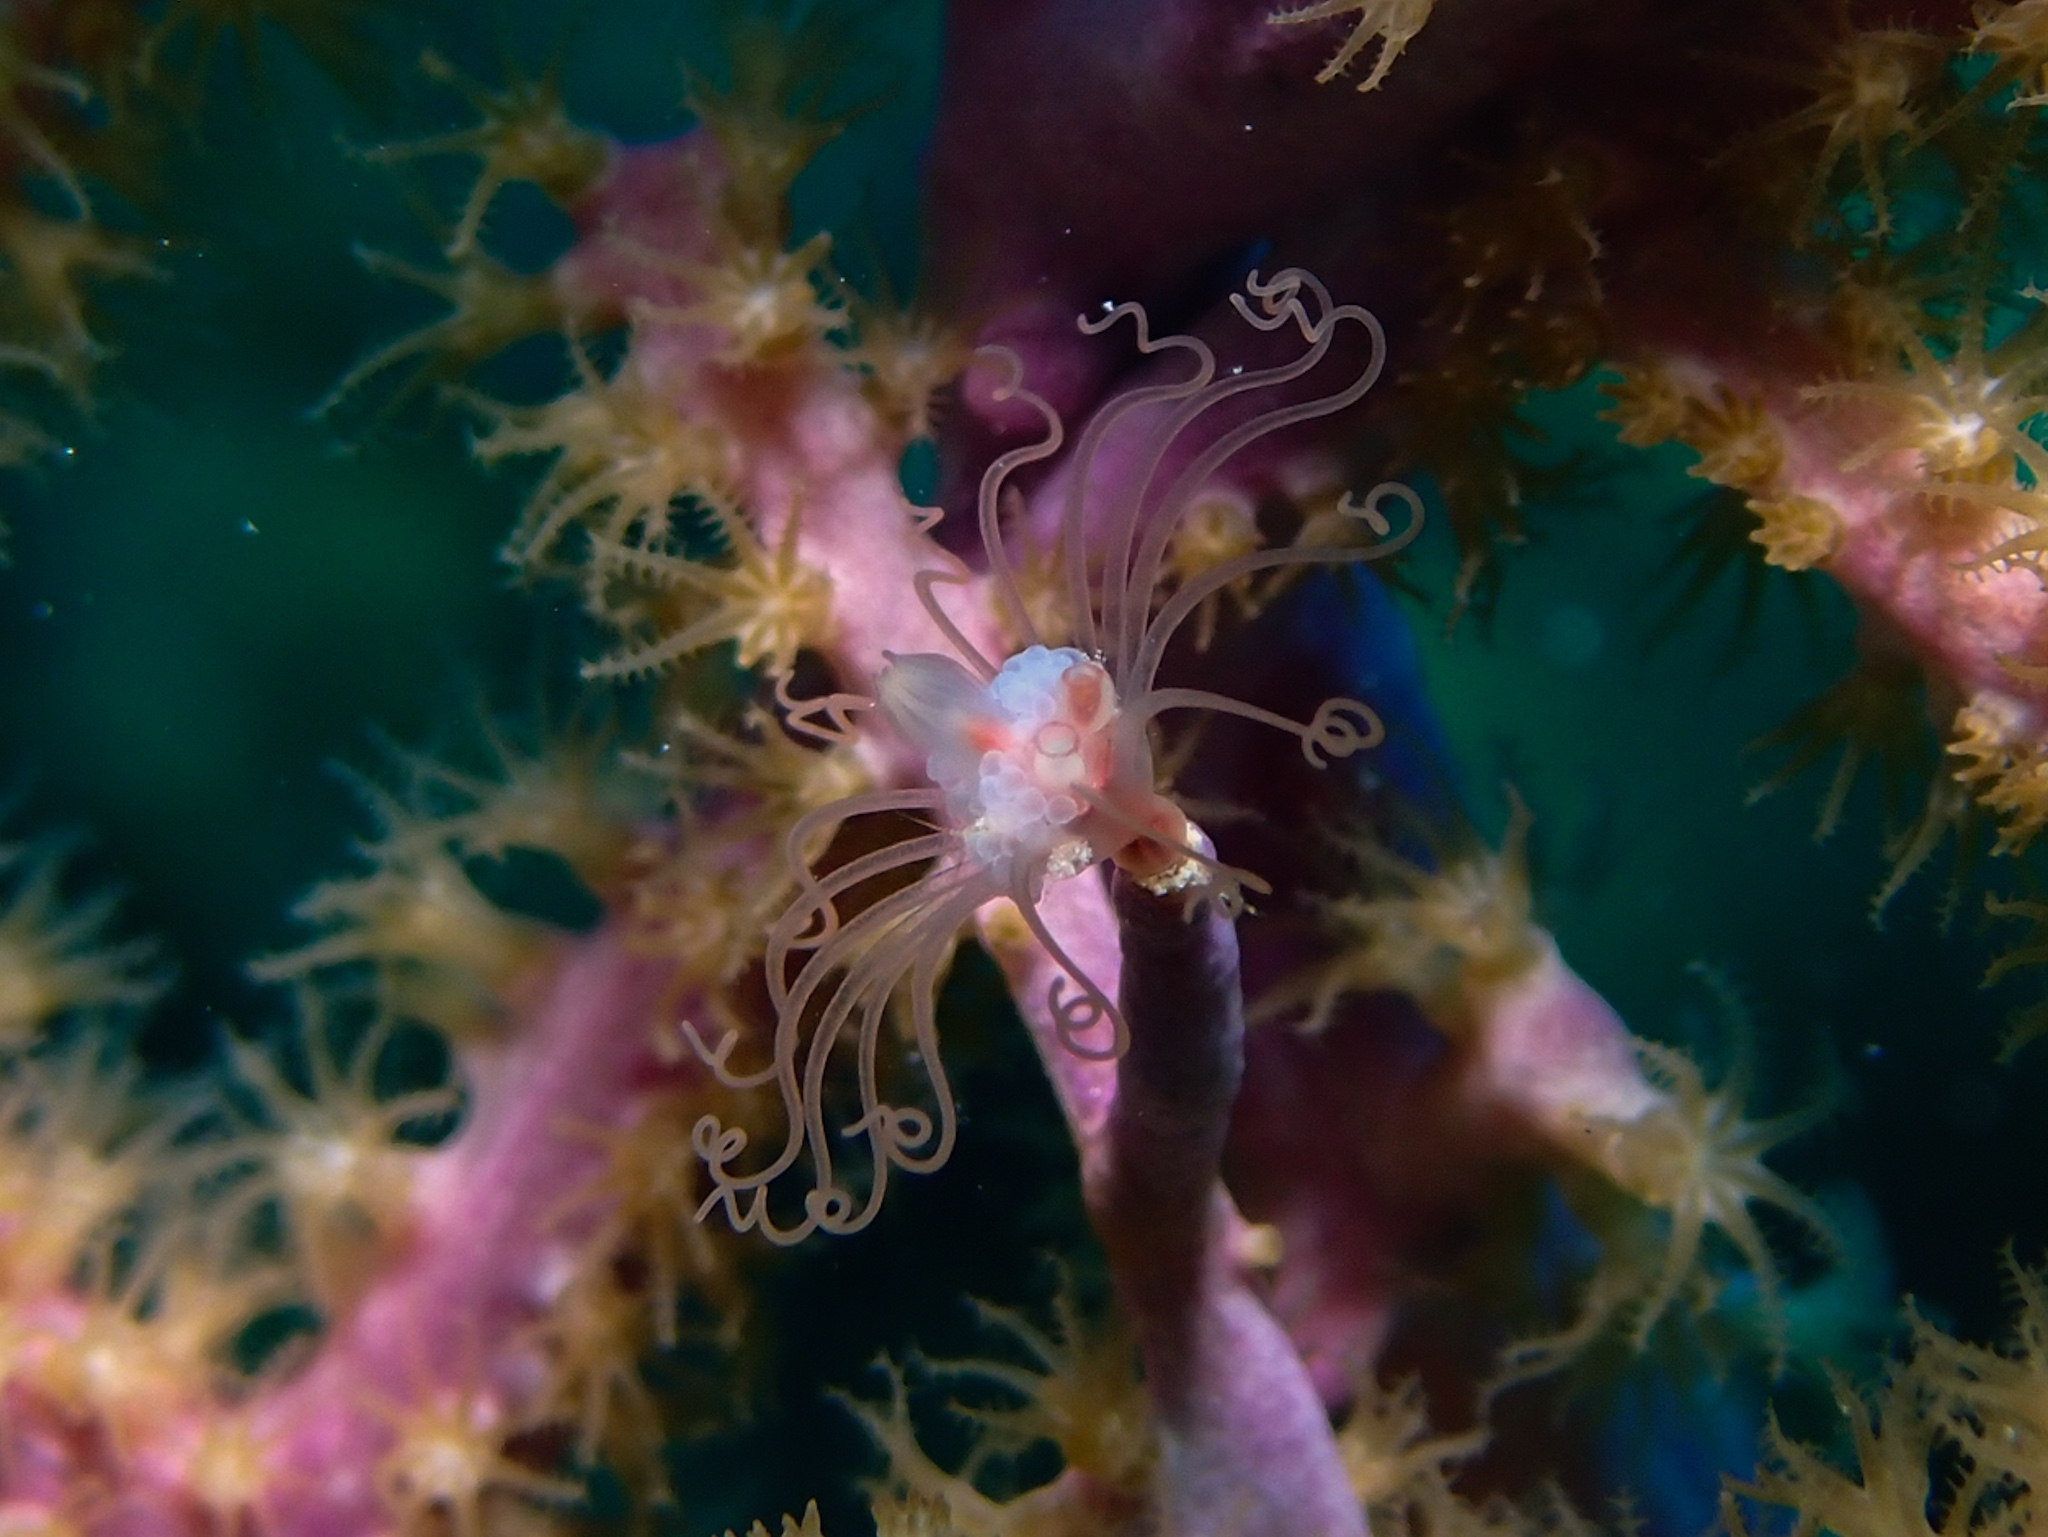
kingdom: Animalia
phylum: Cnidaria
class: Hydrozoa
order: Anthoathecata
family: Tubulariidae
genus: Ralpharia
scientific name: Ralpharia gorgoniae
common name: Solitary gorgonian hydroid
